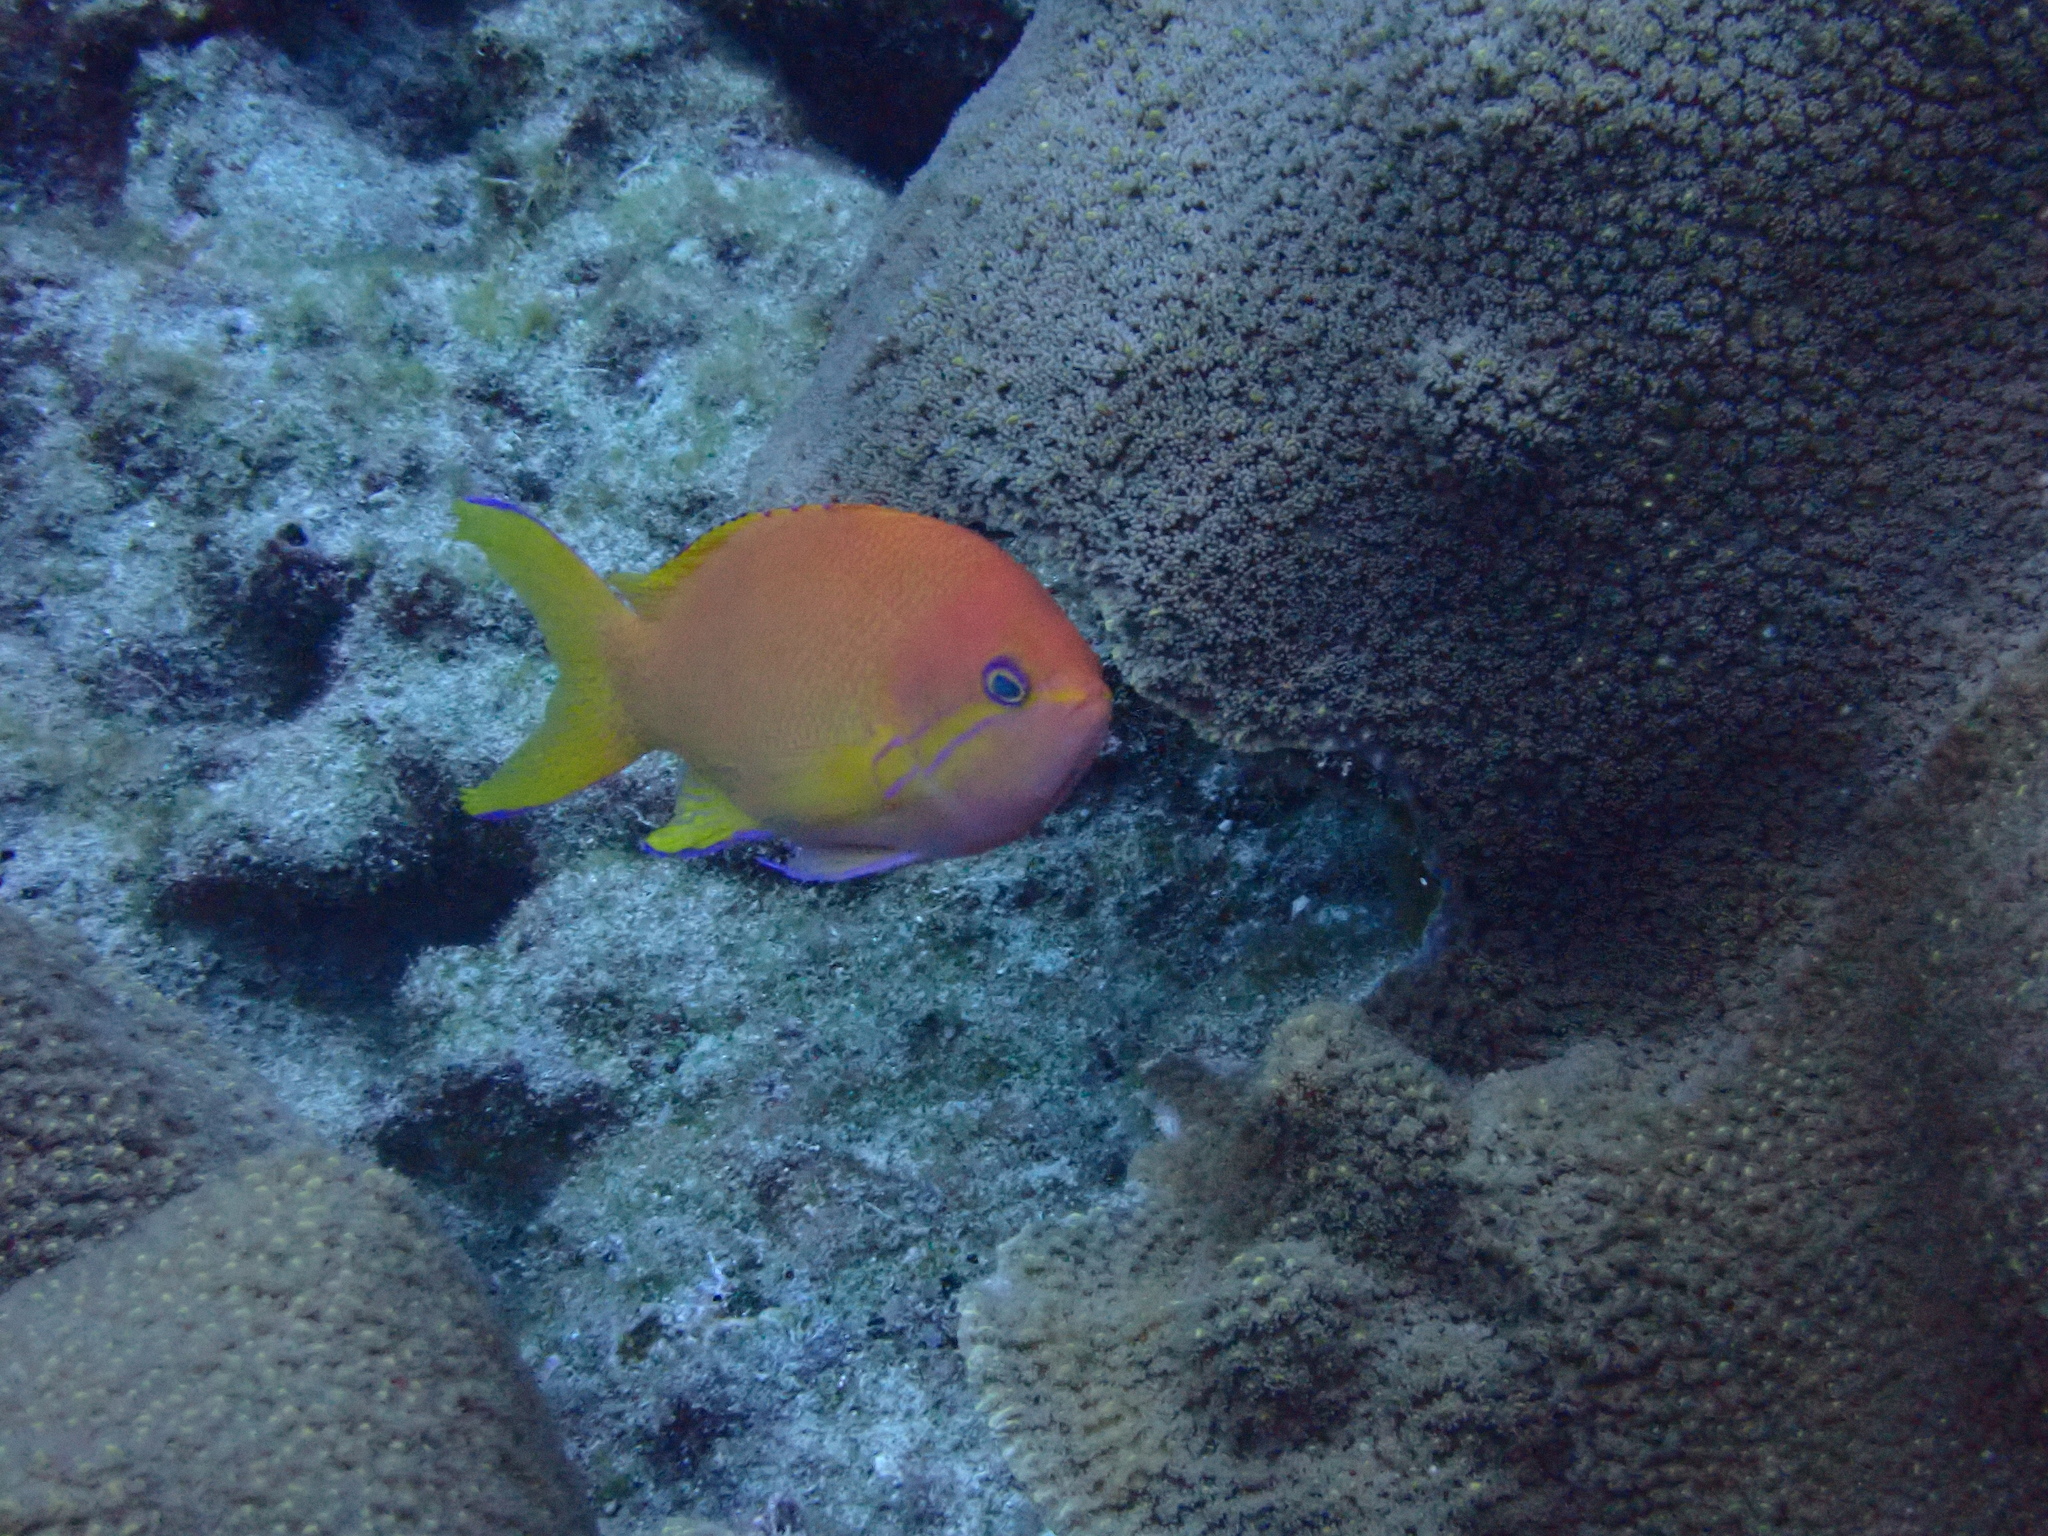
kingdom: Animalia
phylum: Chordata
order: Perciformes
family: Serranidae
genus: Pseudanthias
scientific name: Pseudanthias pleurotaenia
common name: Mirror basslet
